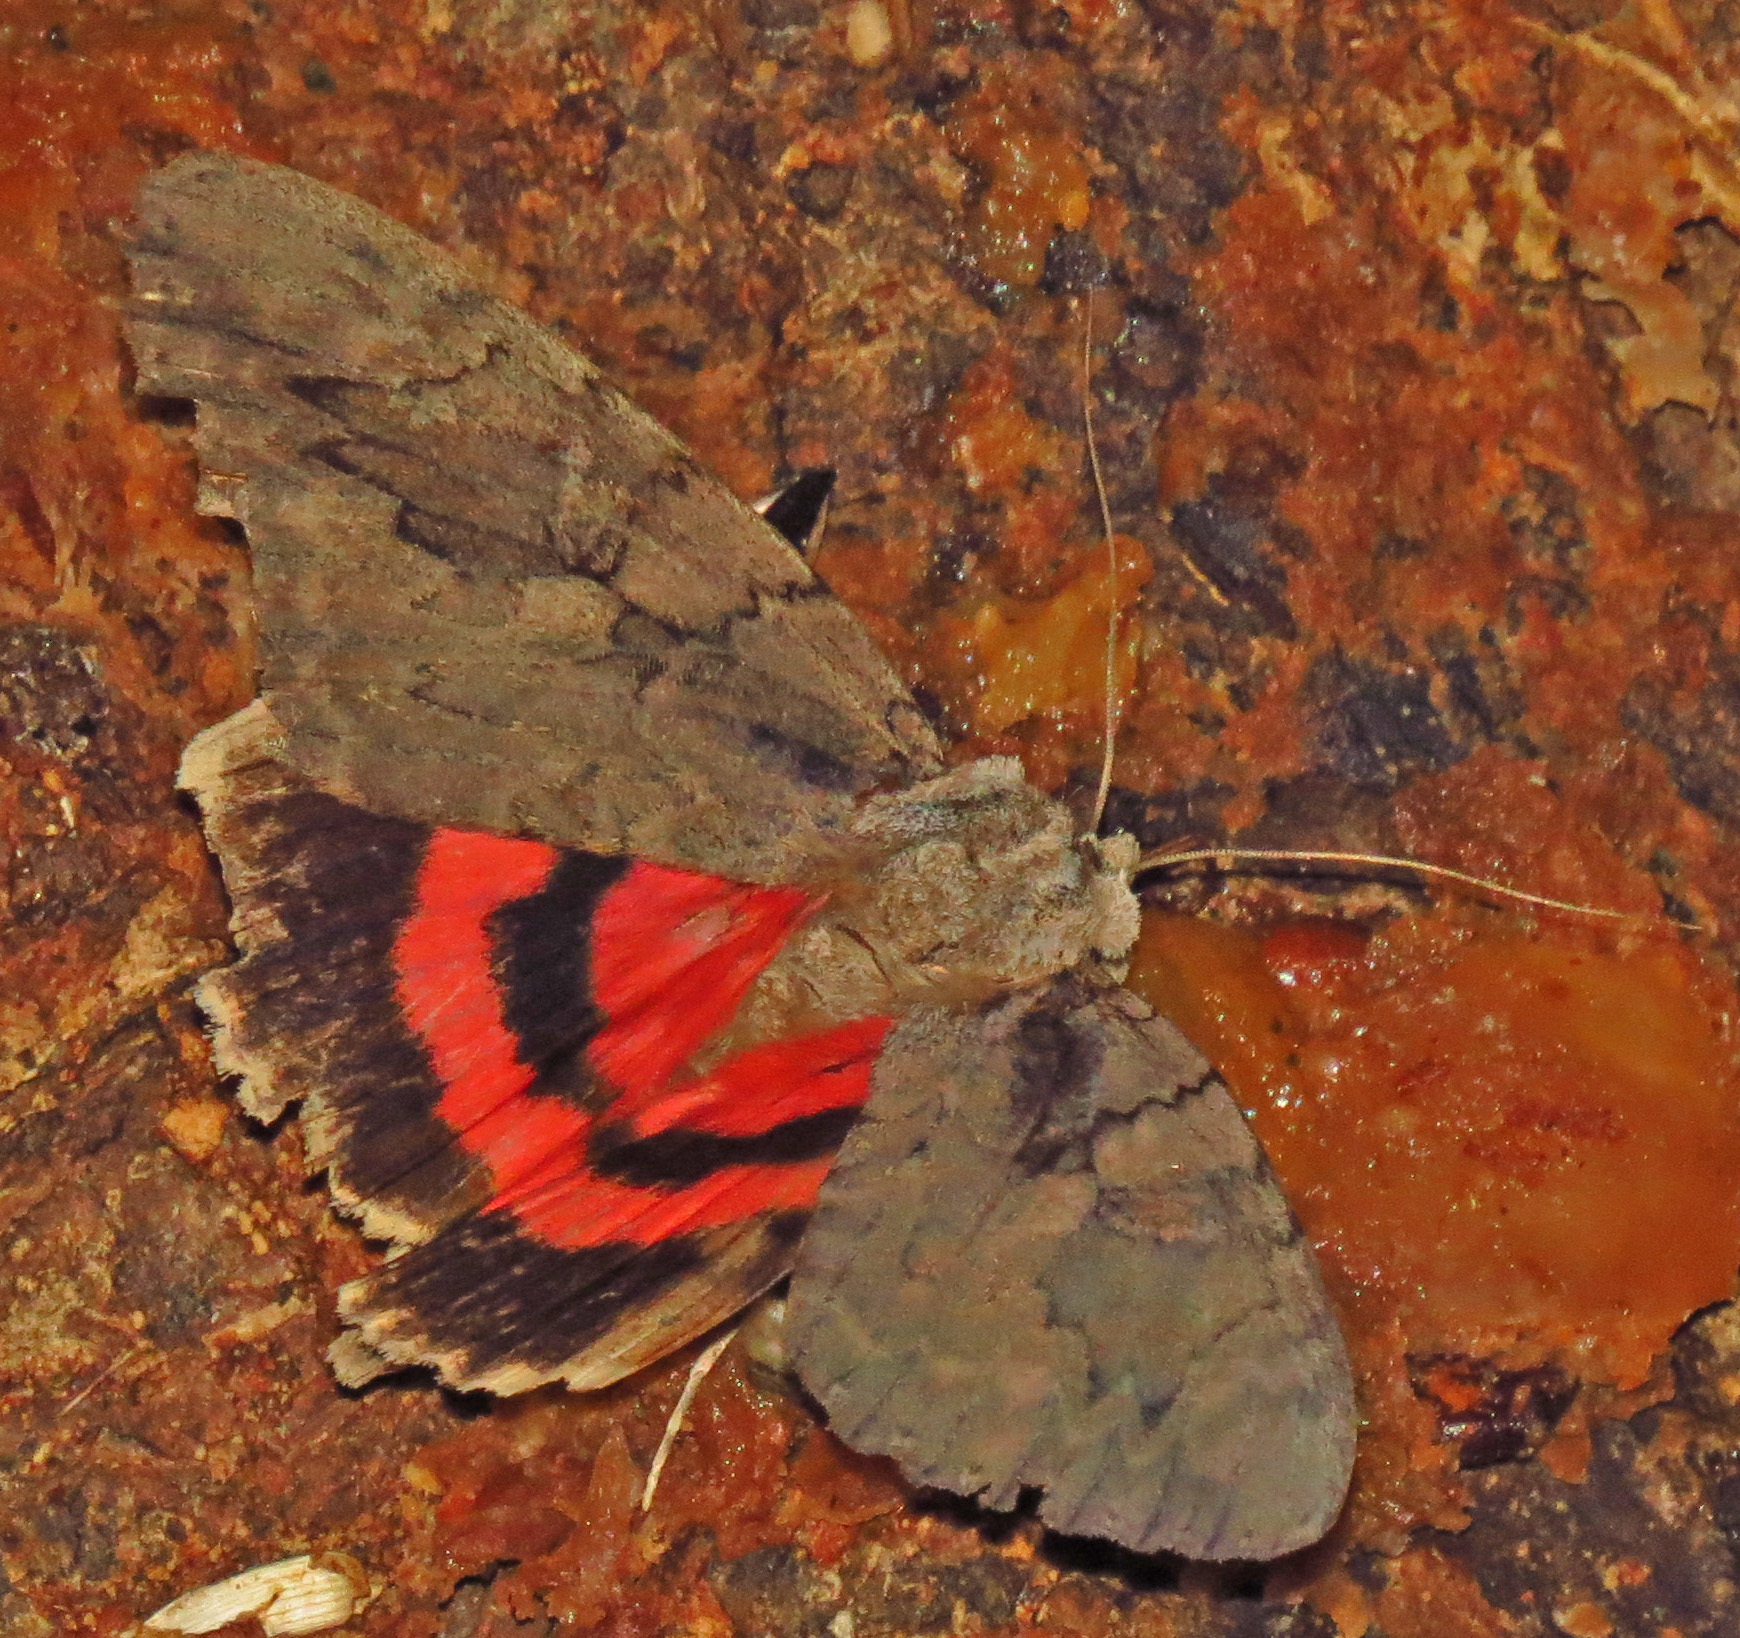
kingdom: Animalia
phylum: Arthropoda
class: Insecta
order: Lepidoptera
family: Erebidae
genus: Catocala
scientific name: Catocala amatrix
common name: Sweetheart underwing
